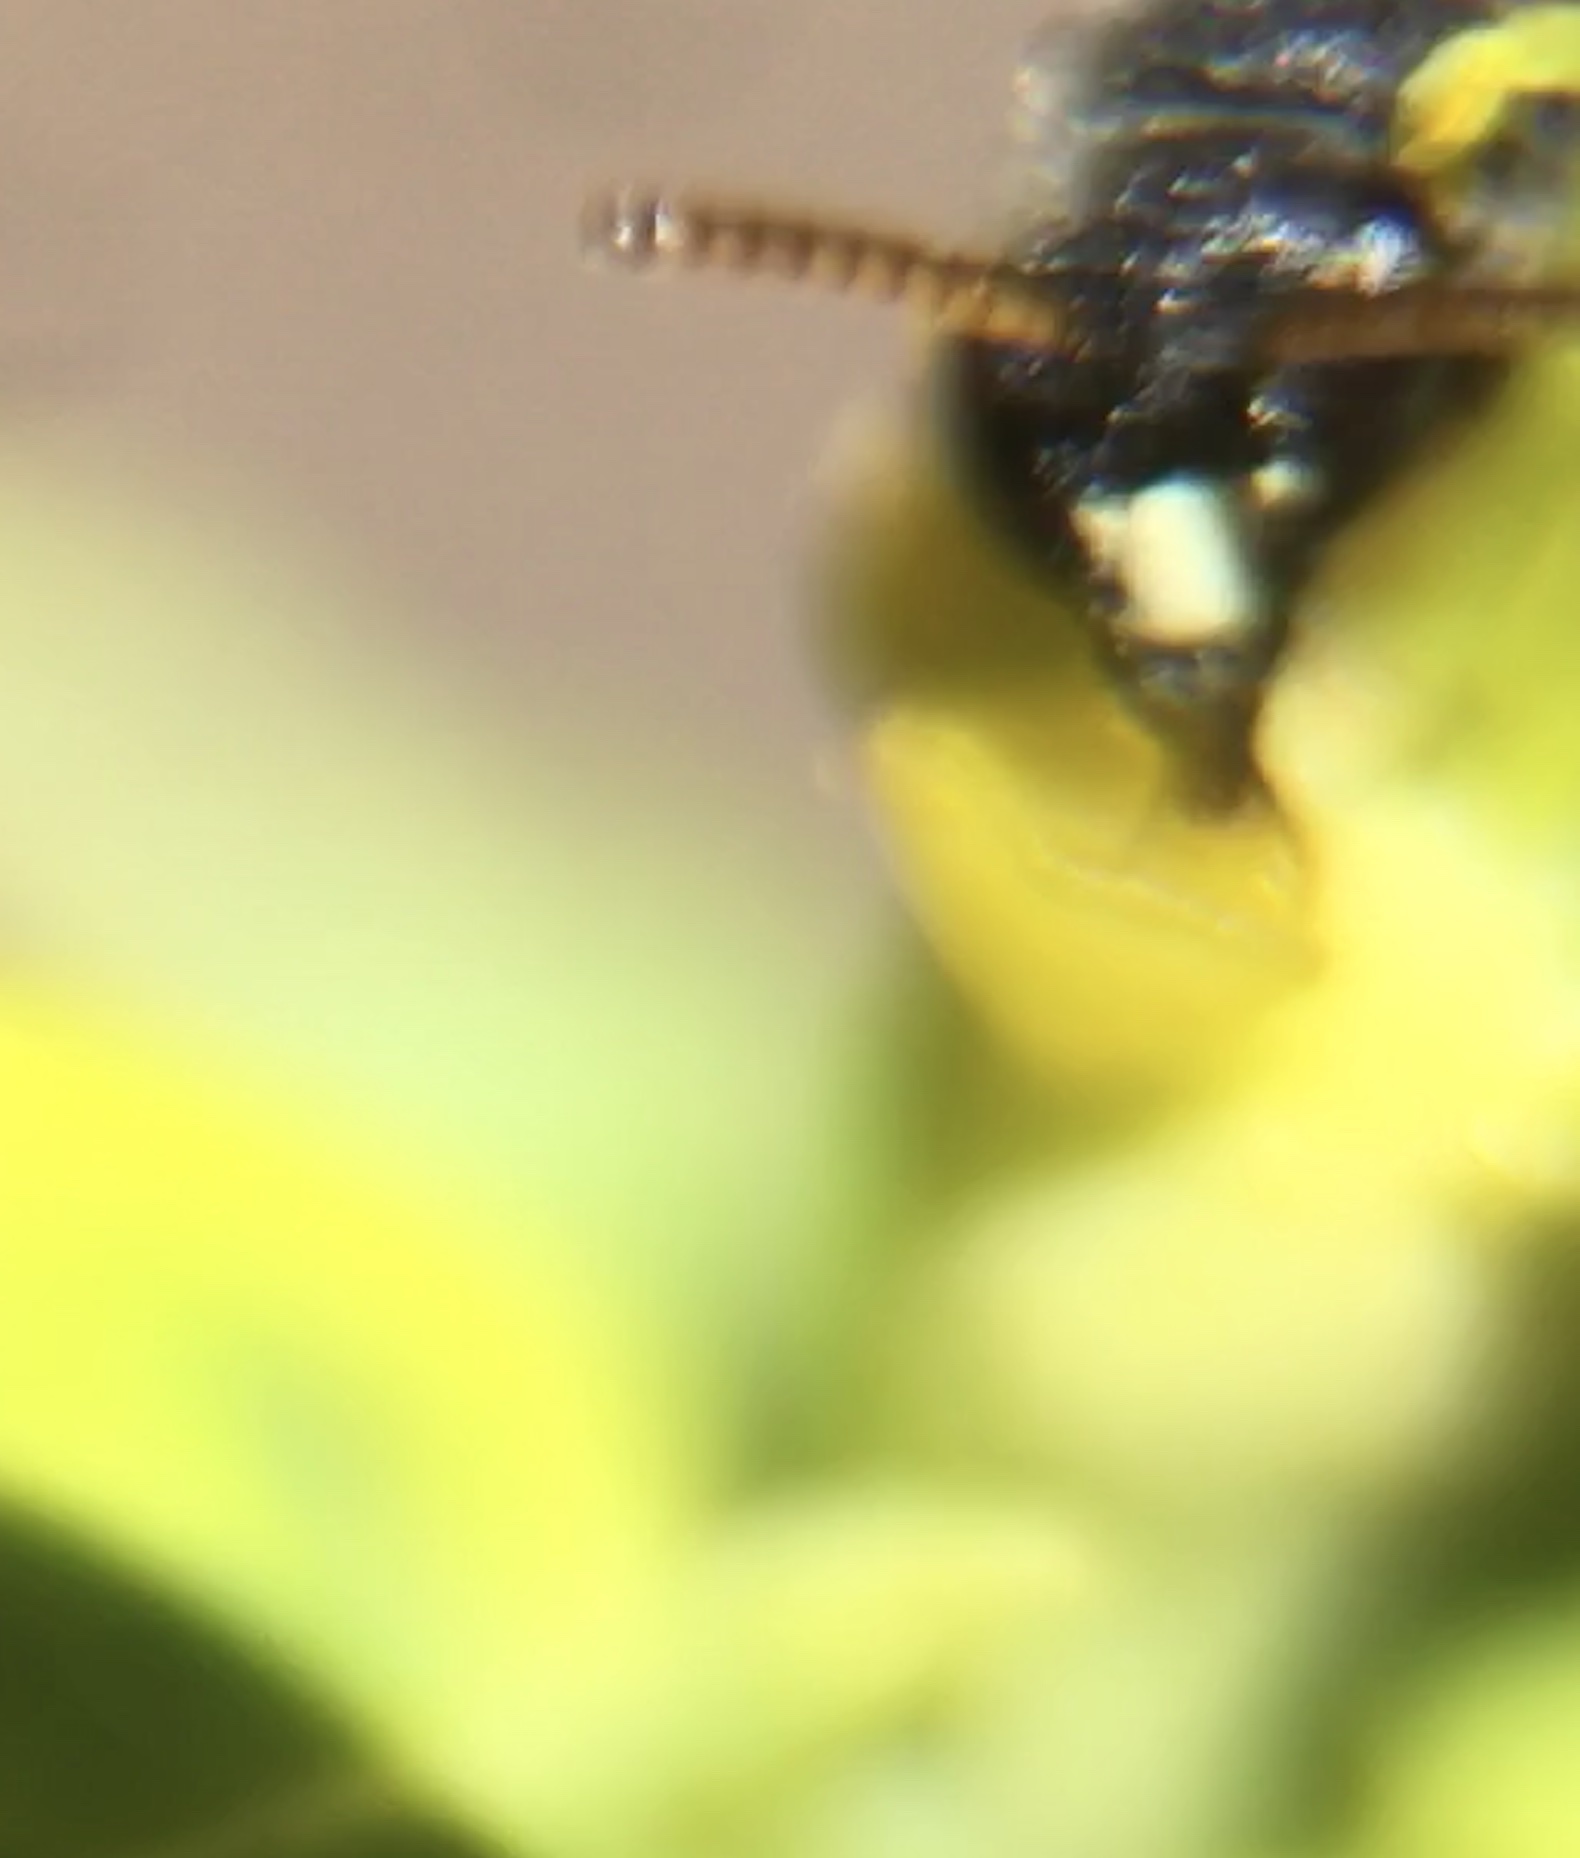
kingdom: Animalia
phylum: Arthropoda
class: Insecta
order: Hymenoptera
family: Colletidae
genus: Hylaeus
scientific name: Hylaeus punctatus
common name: Punctate masked bee
